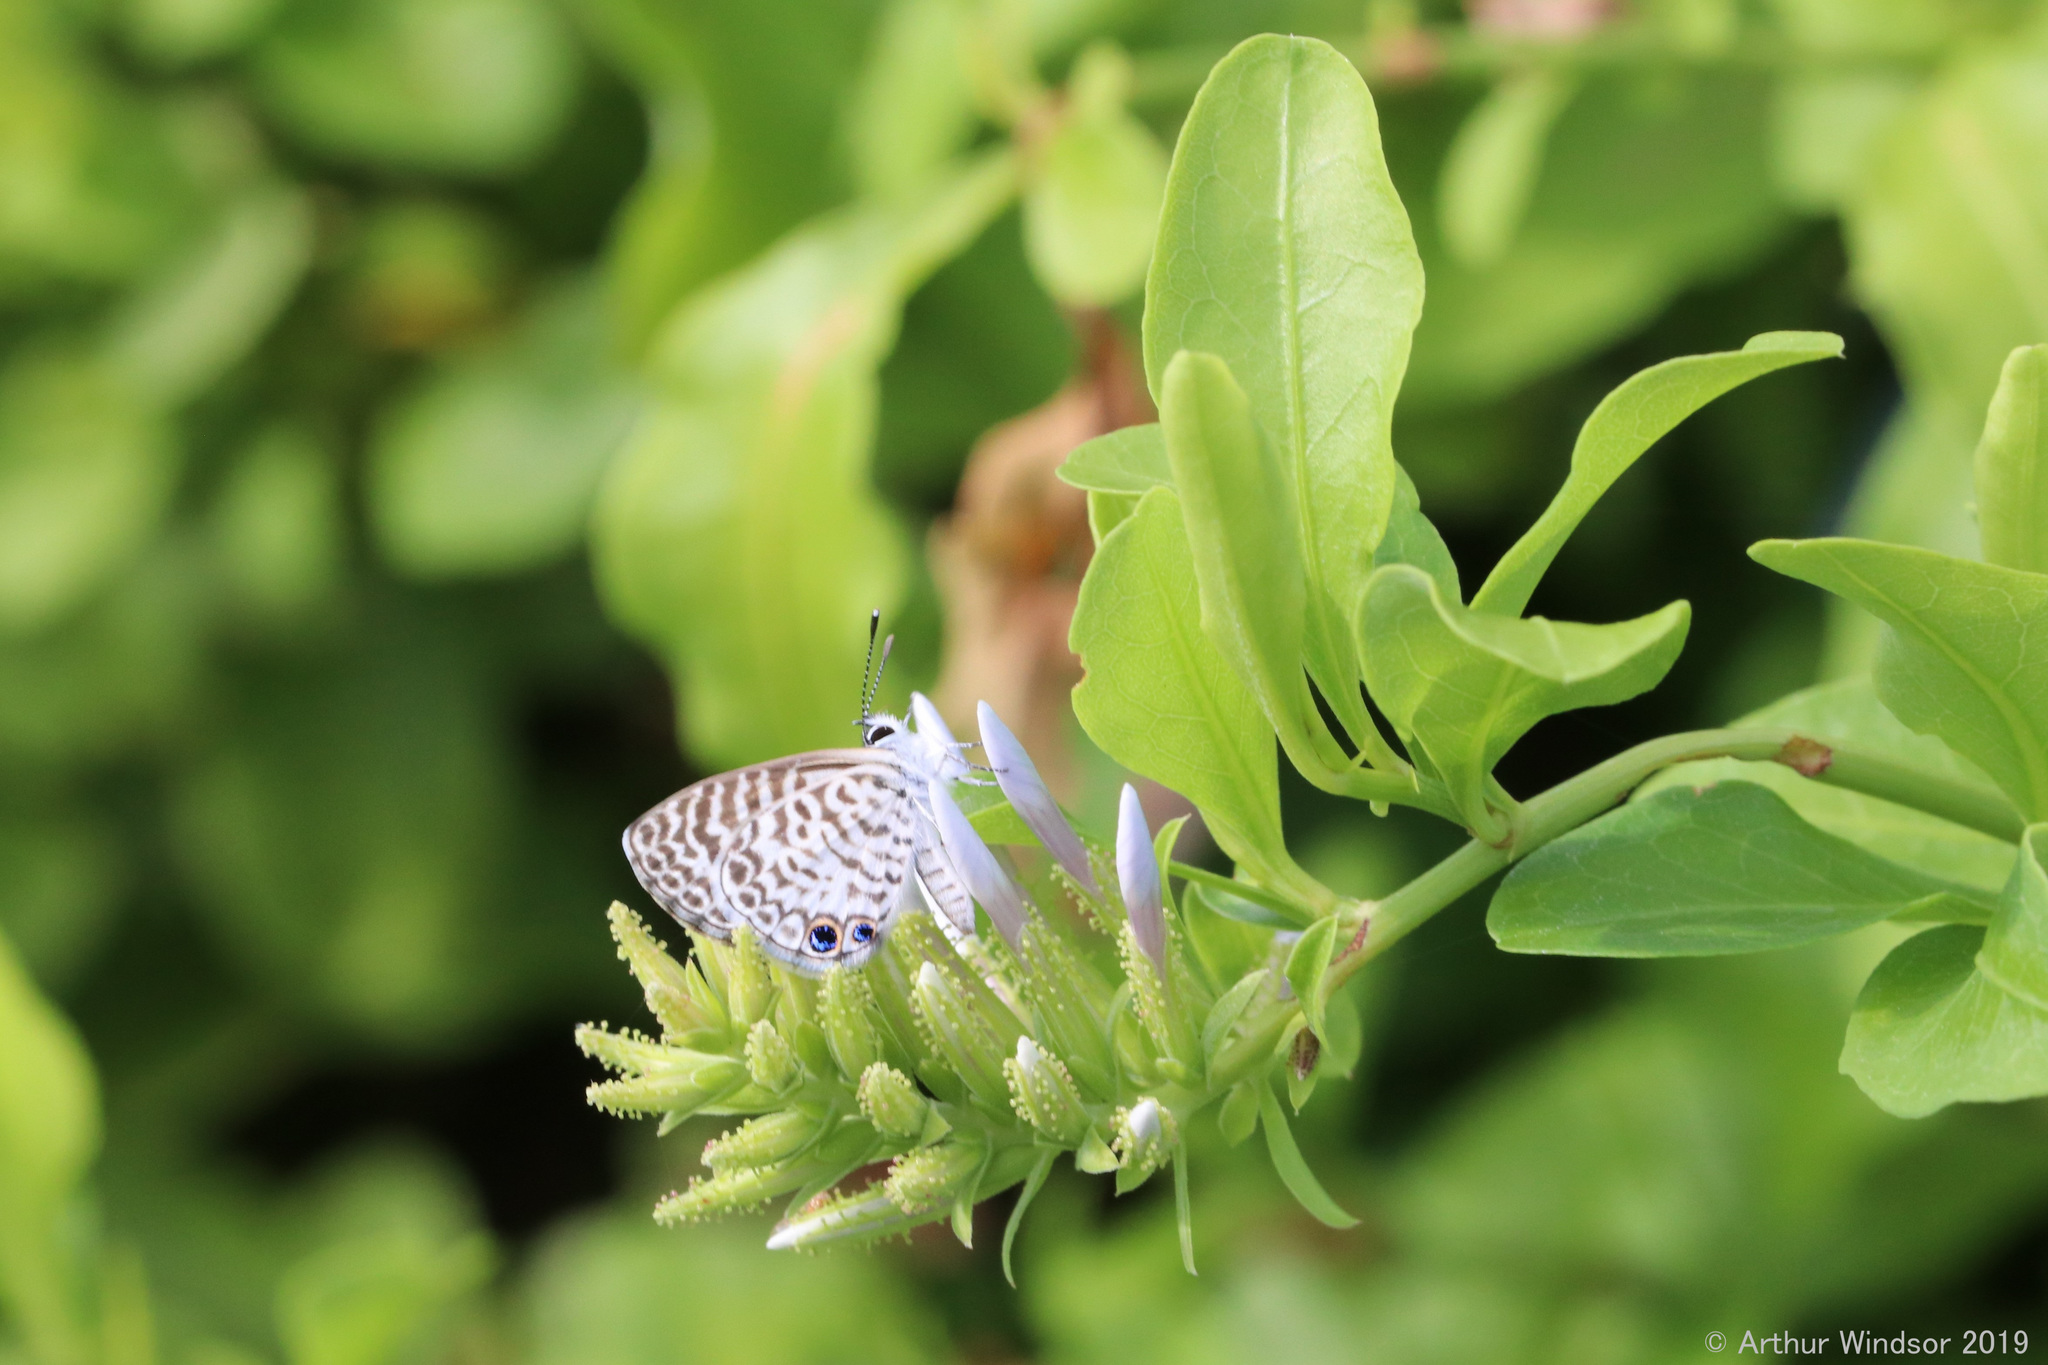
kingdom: Animalia
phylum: Arthropoda
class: Insecta
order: Lepidoptera
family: Lycaenidae
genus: Leptotes
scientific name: Leptotes cassius
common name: Cassius blue
